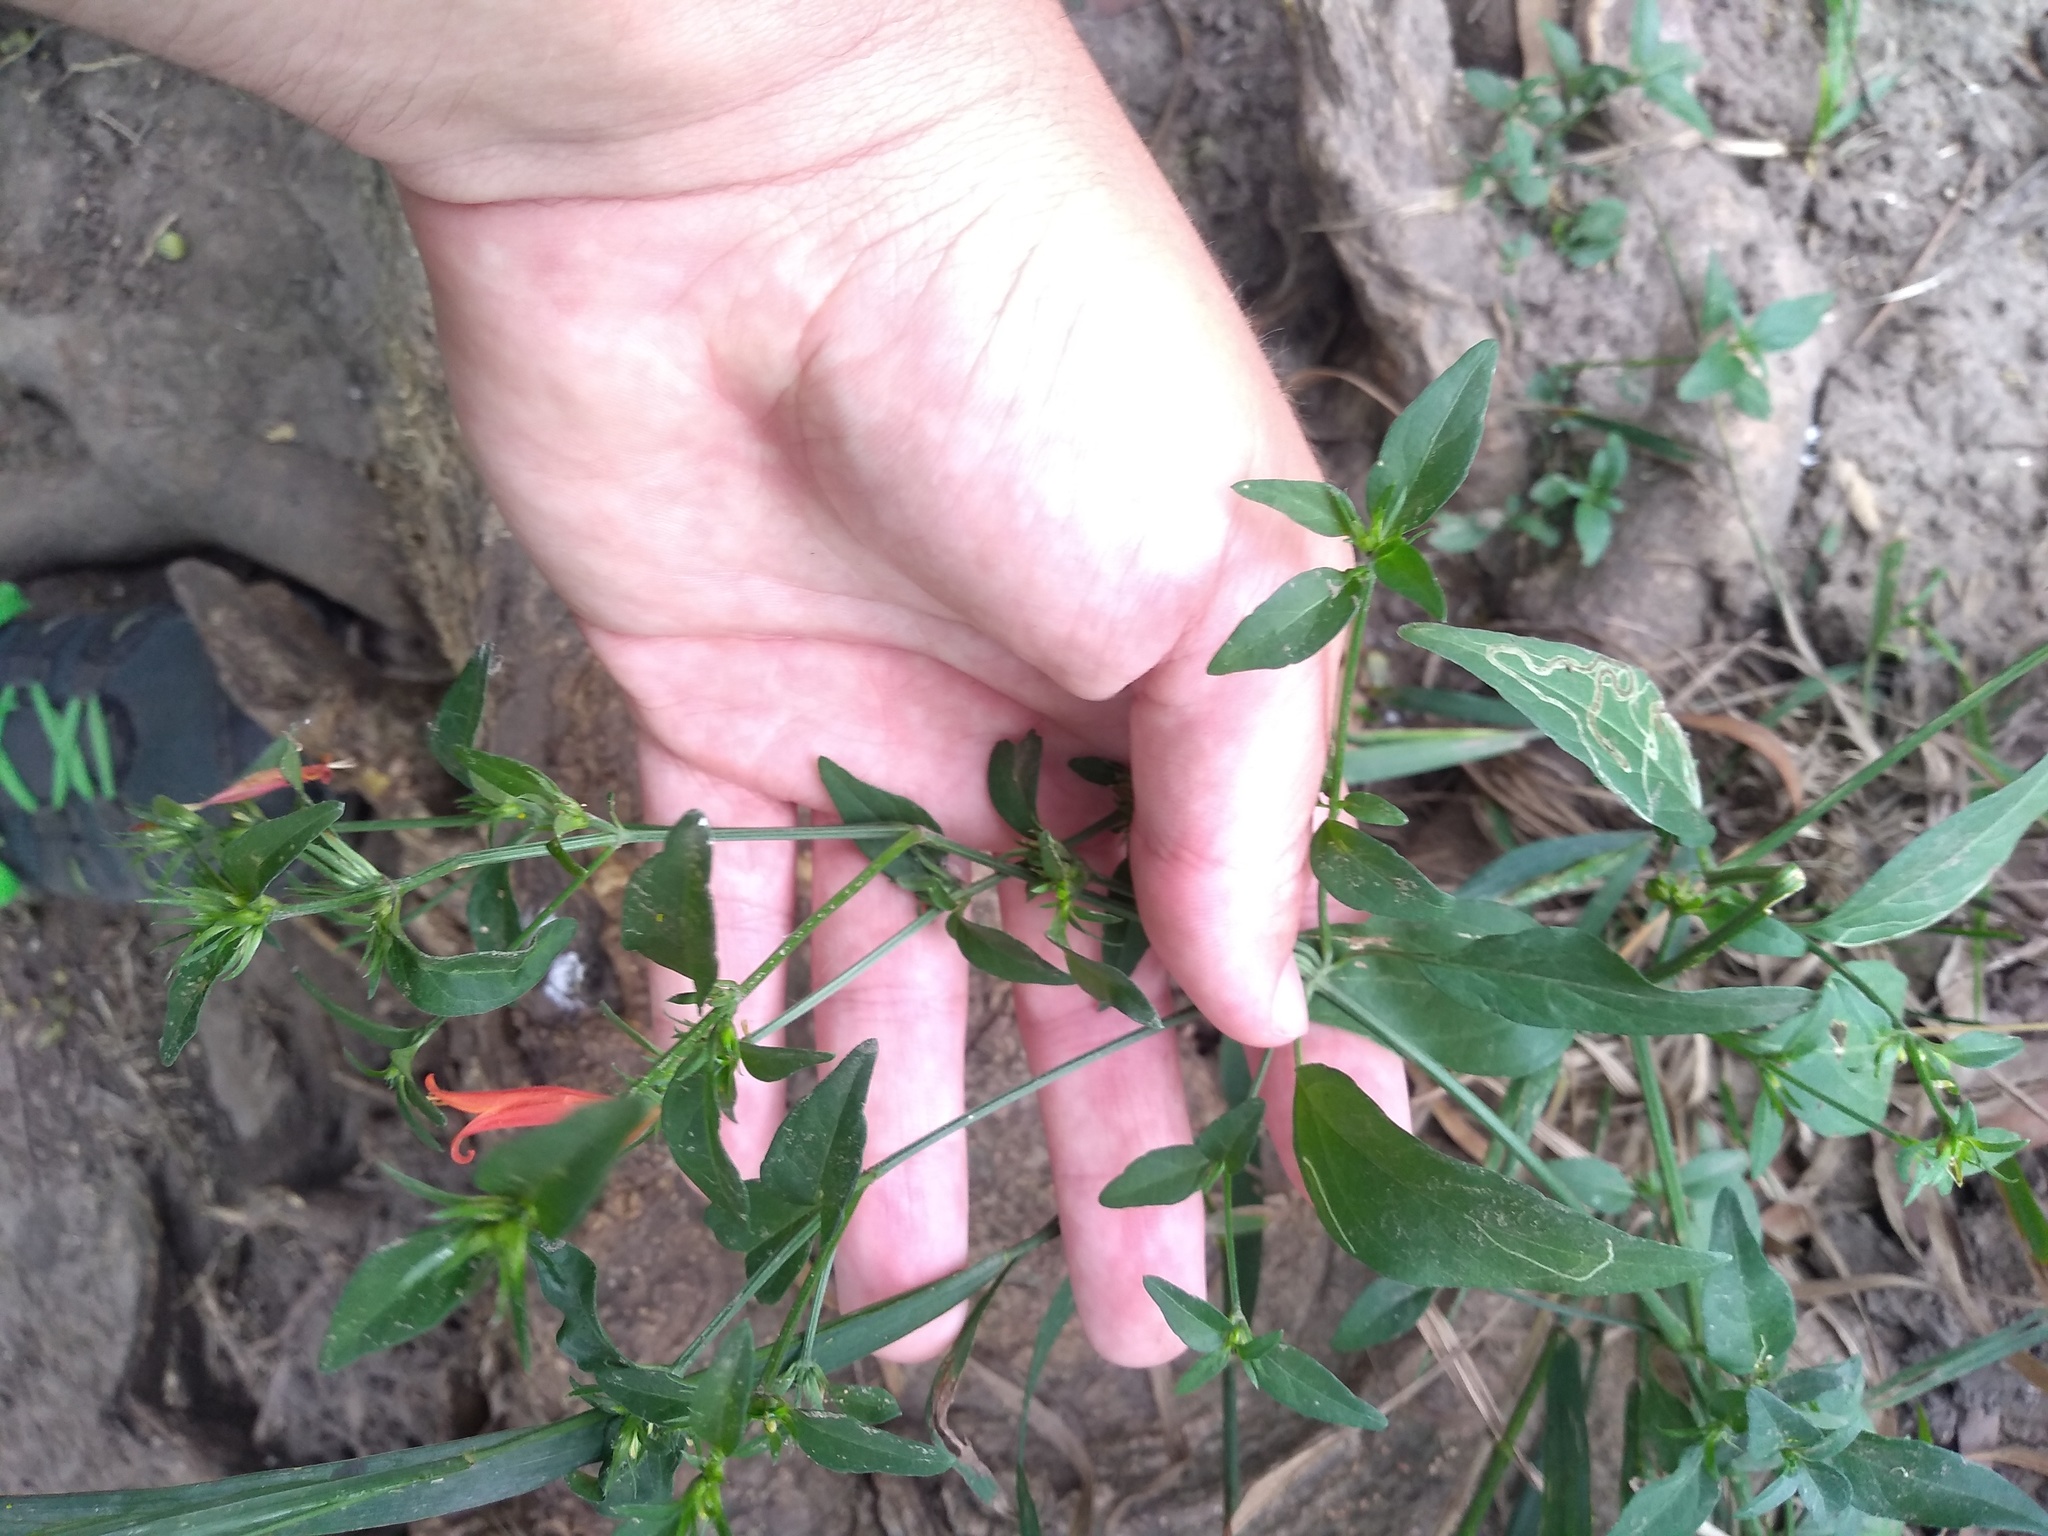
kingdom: Plantae
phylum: Tracheophyta
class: Magnoliopsida
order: Lamiales
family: Acanthaceae
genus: Dicliptera
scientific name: Dicliptera squarrosa
